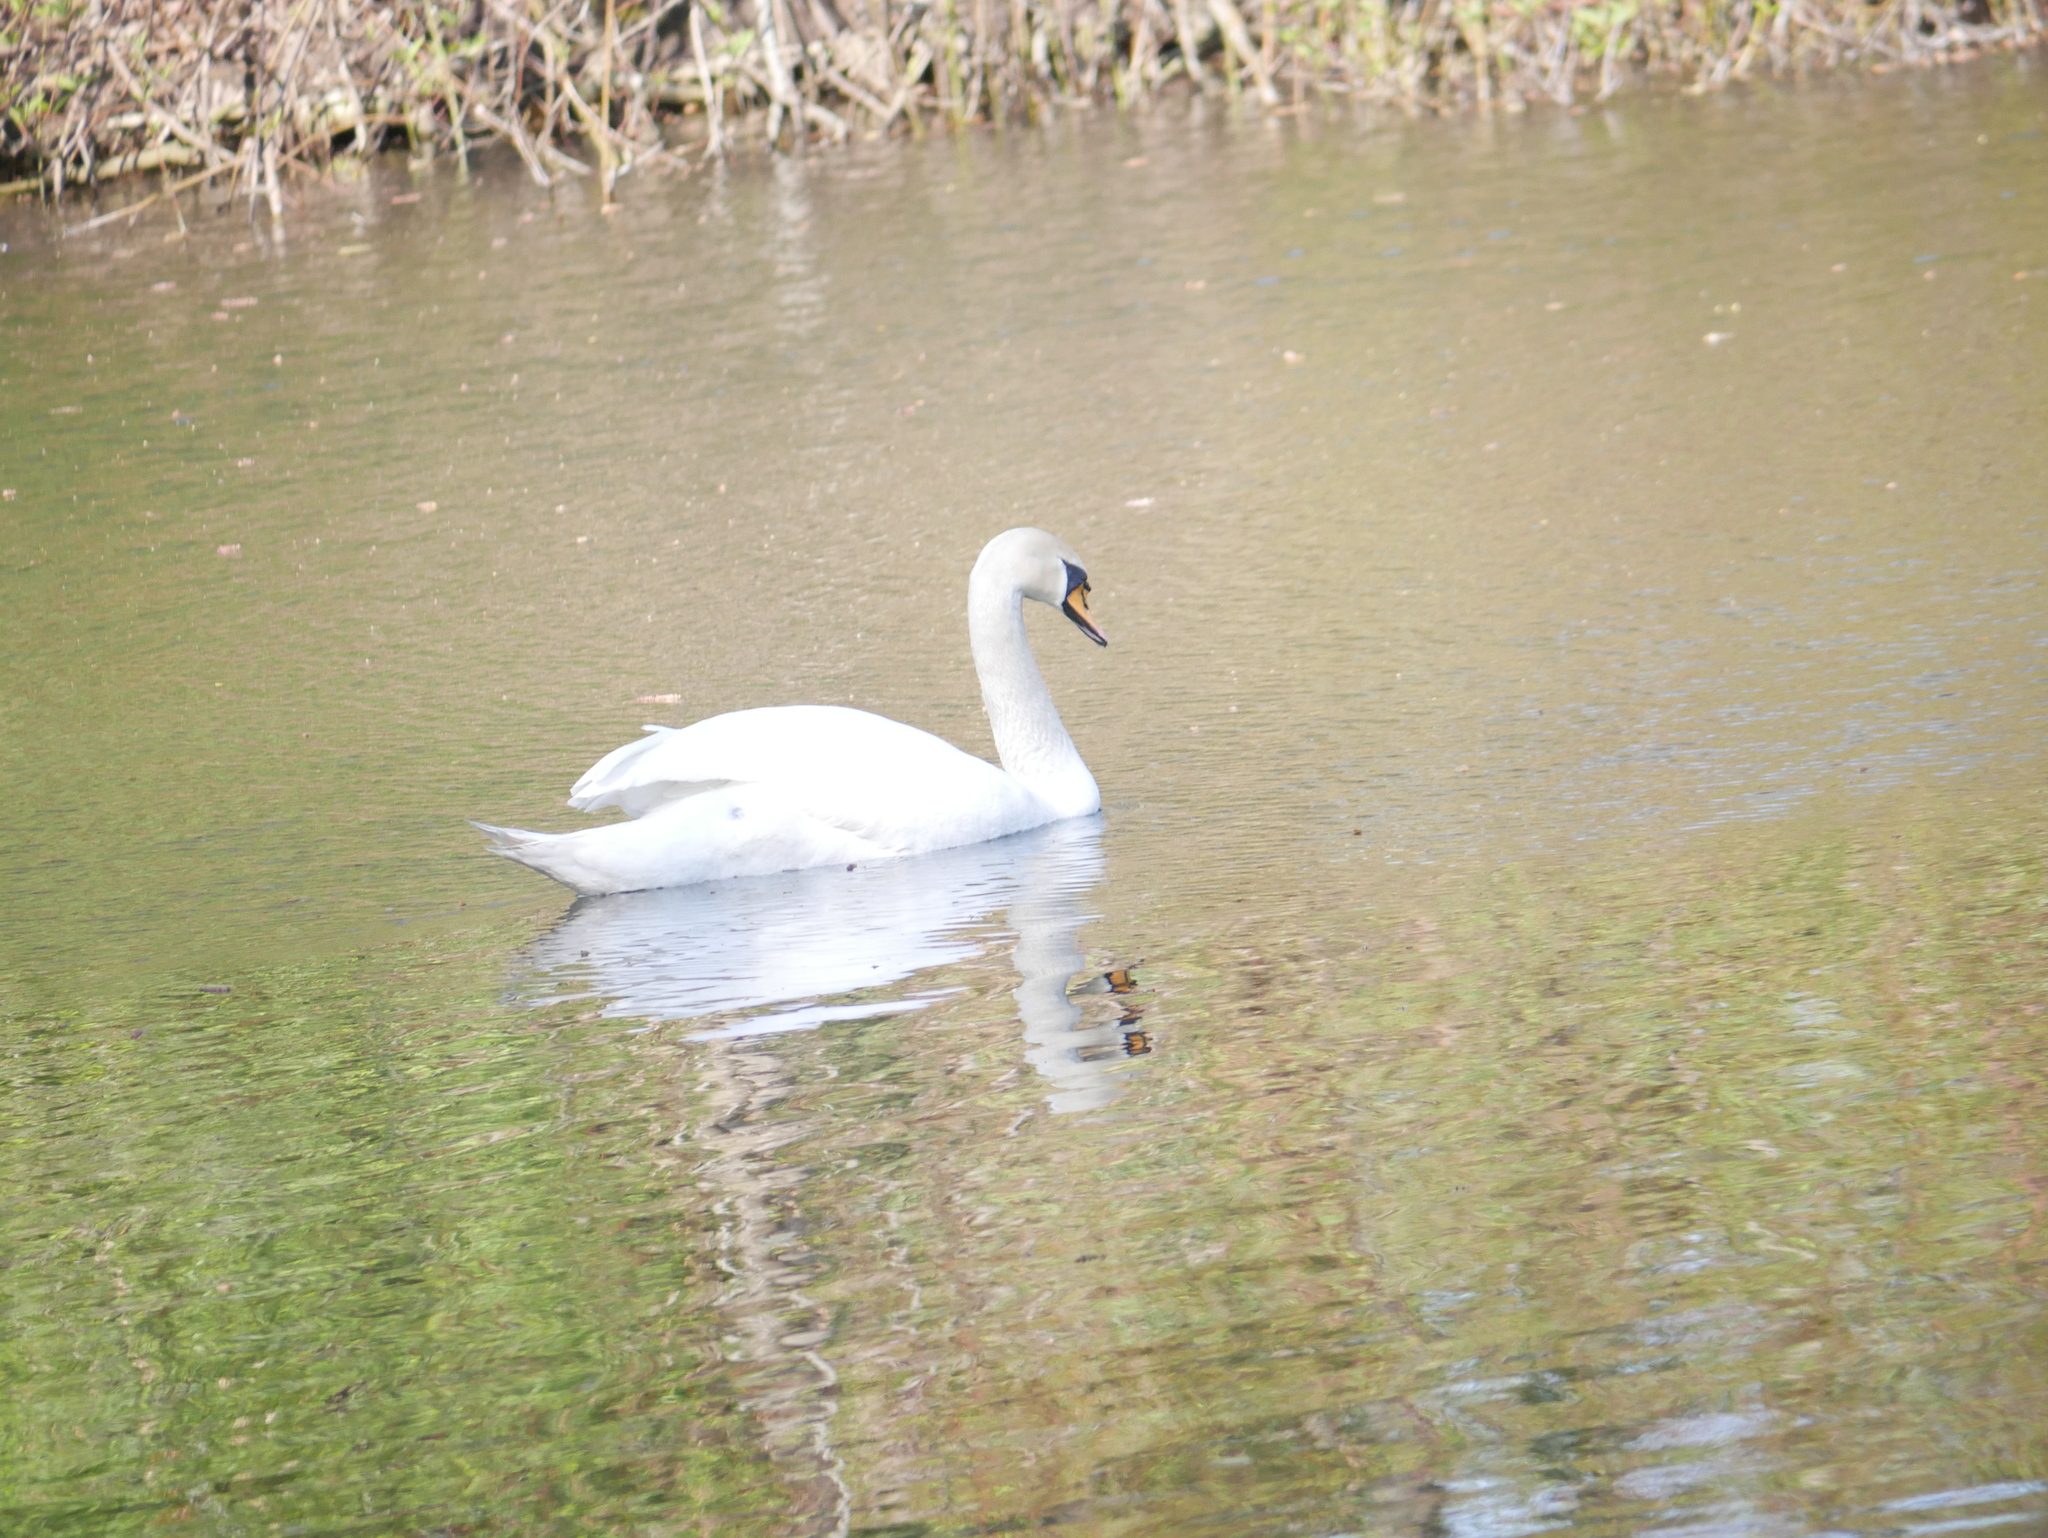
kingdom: Animalia
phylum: Chordata
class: Aves
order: Anseriformes
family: Anatidae
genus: Cygnus
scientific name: Cygnus olor
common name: Mute swan
